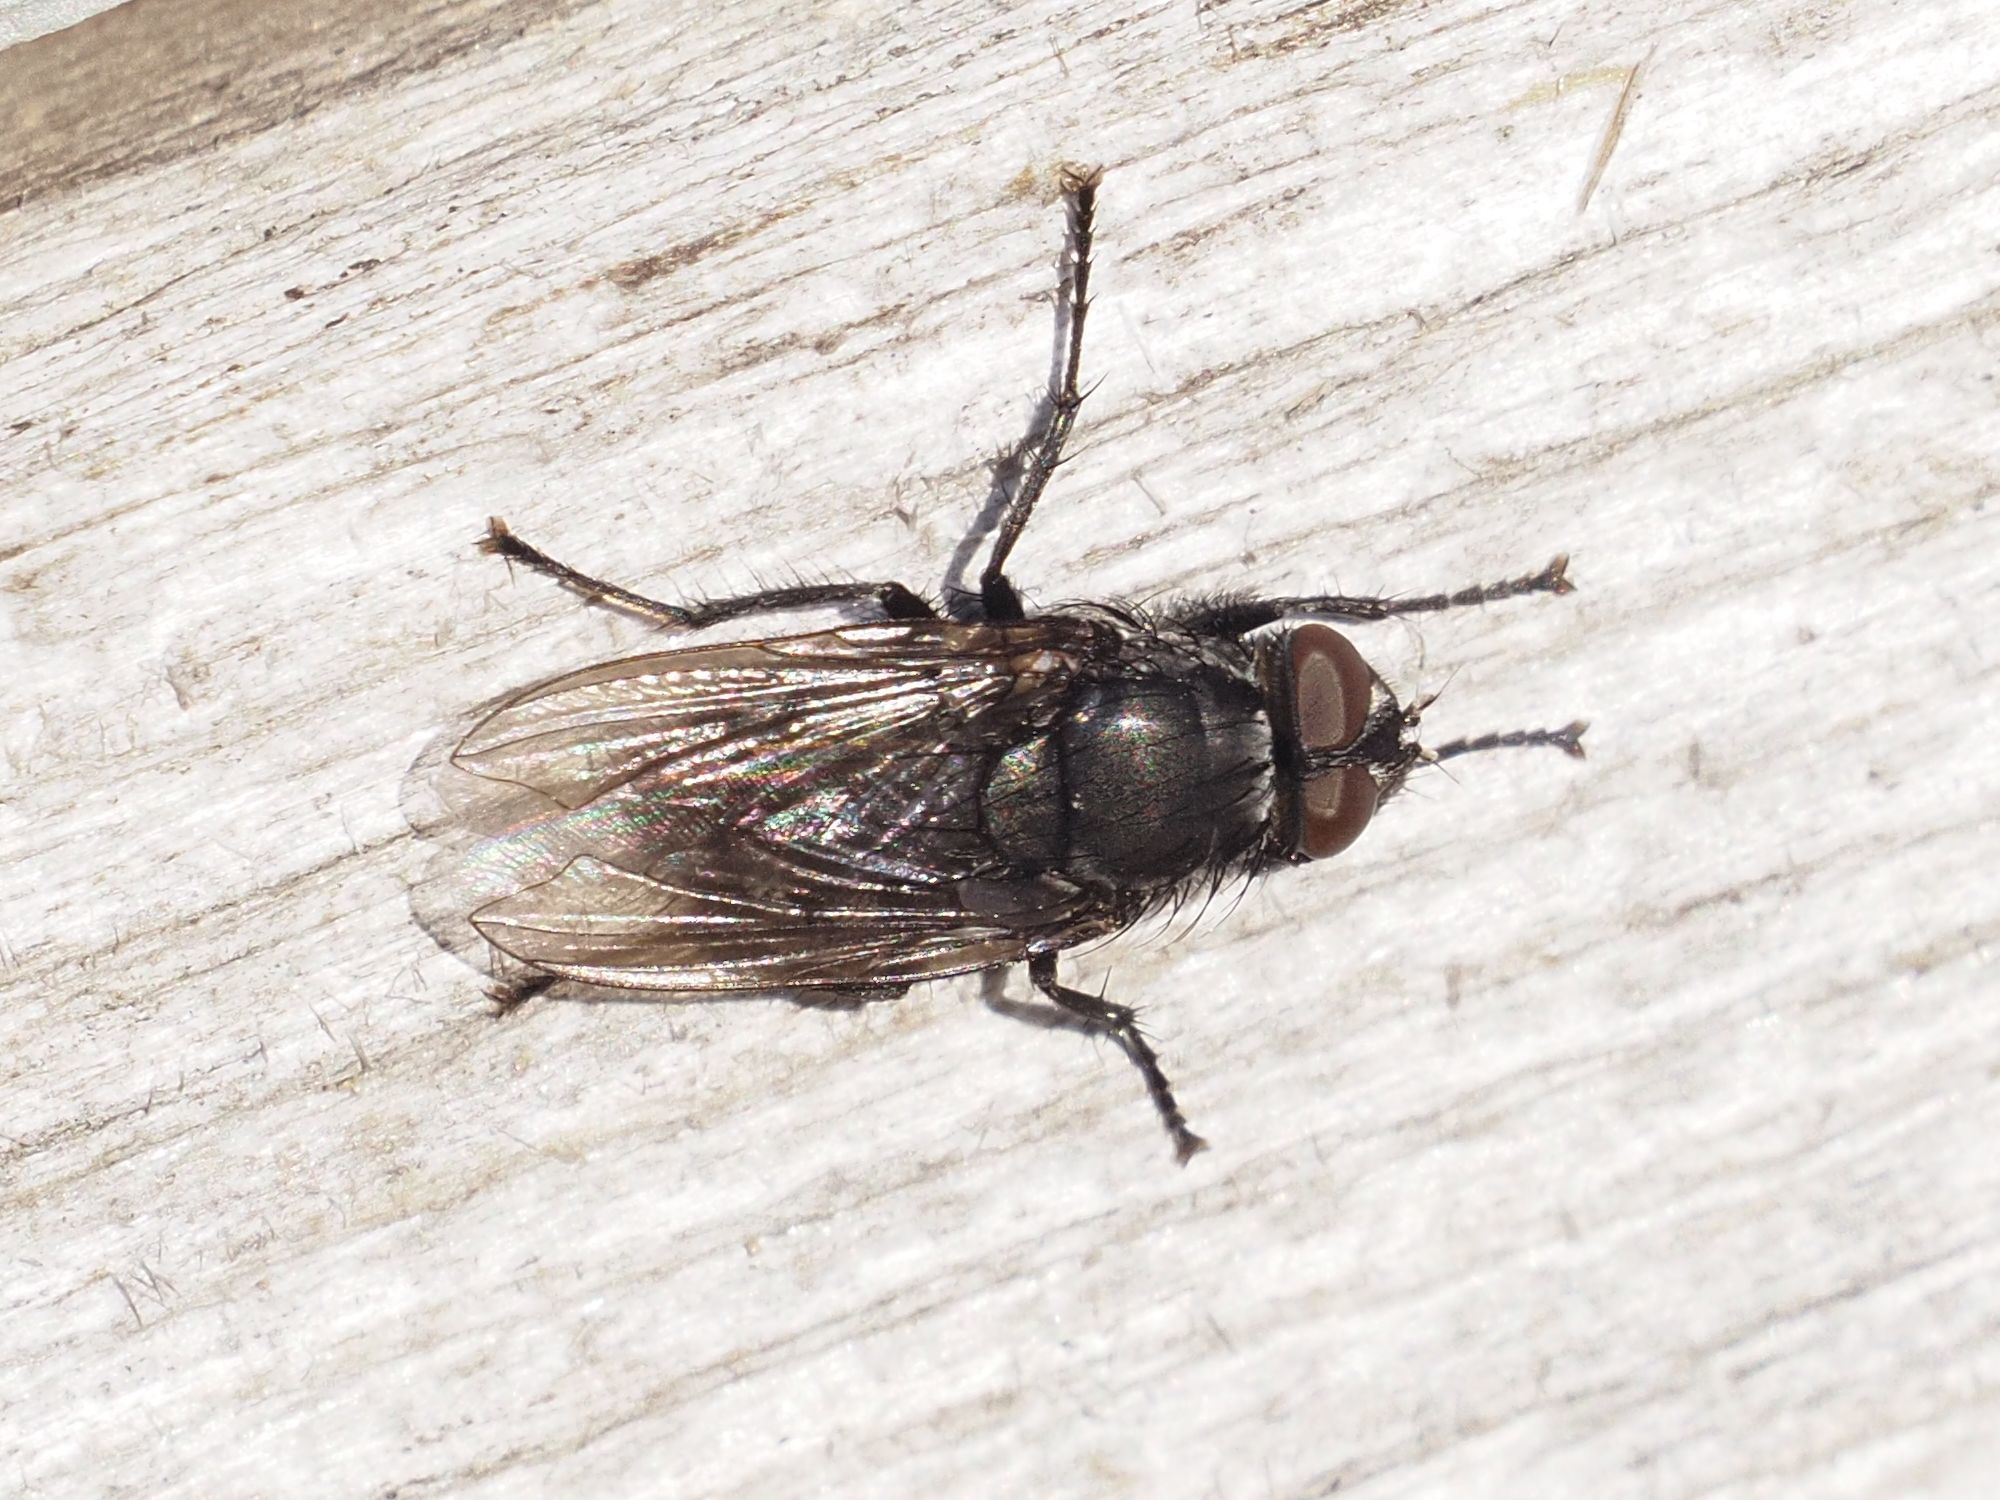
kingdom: Animalia
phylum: Arthropoda
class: Insecta
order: Diptera
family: Polleniidae
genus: Pollenia
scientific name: Pollenia vagabunda
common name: Vagabund cluster fly
